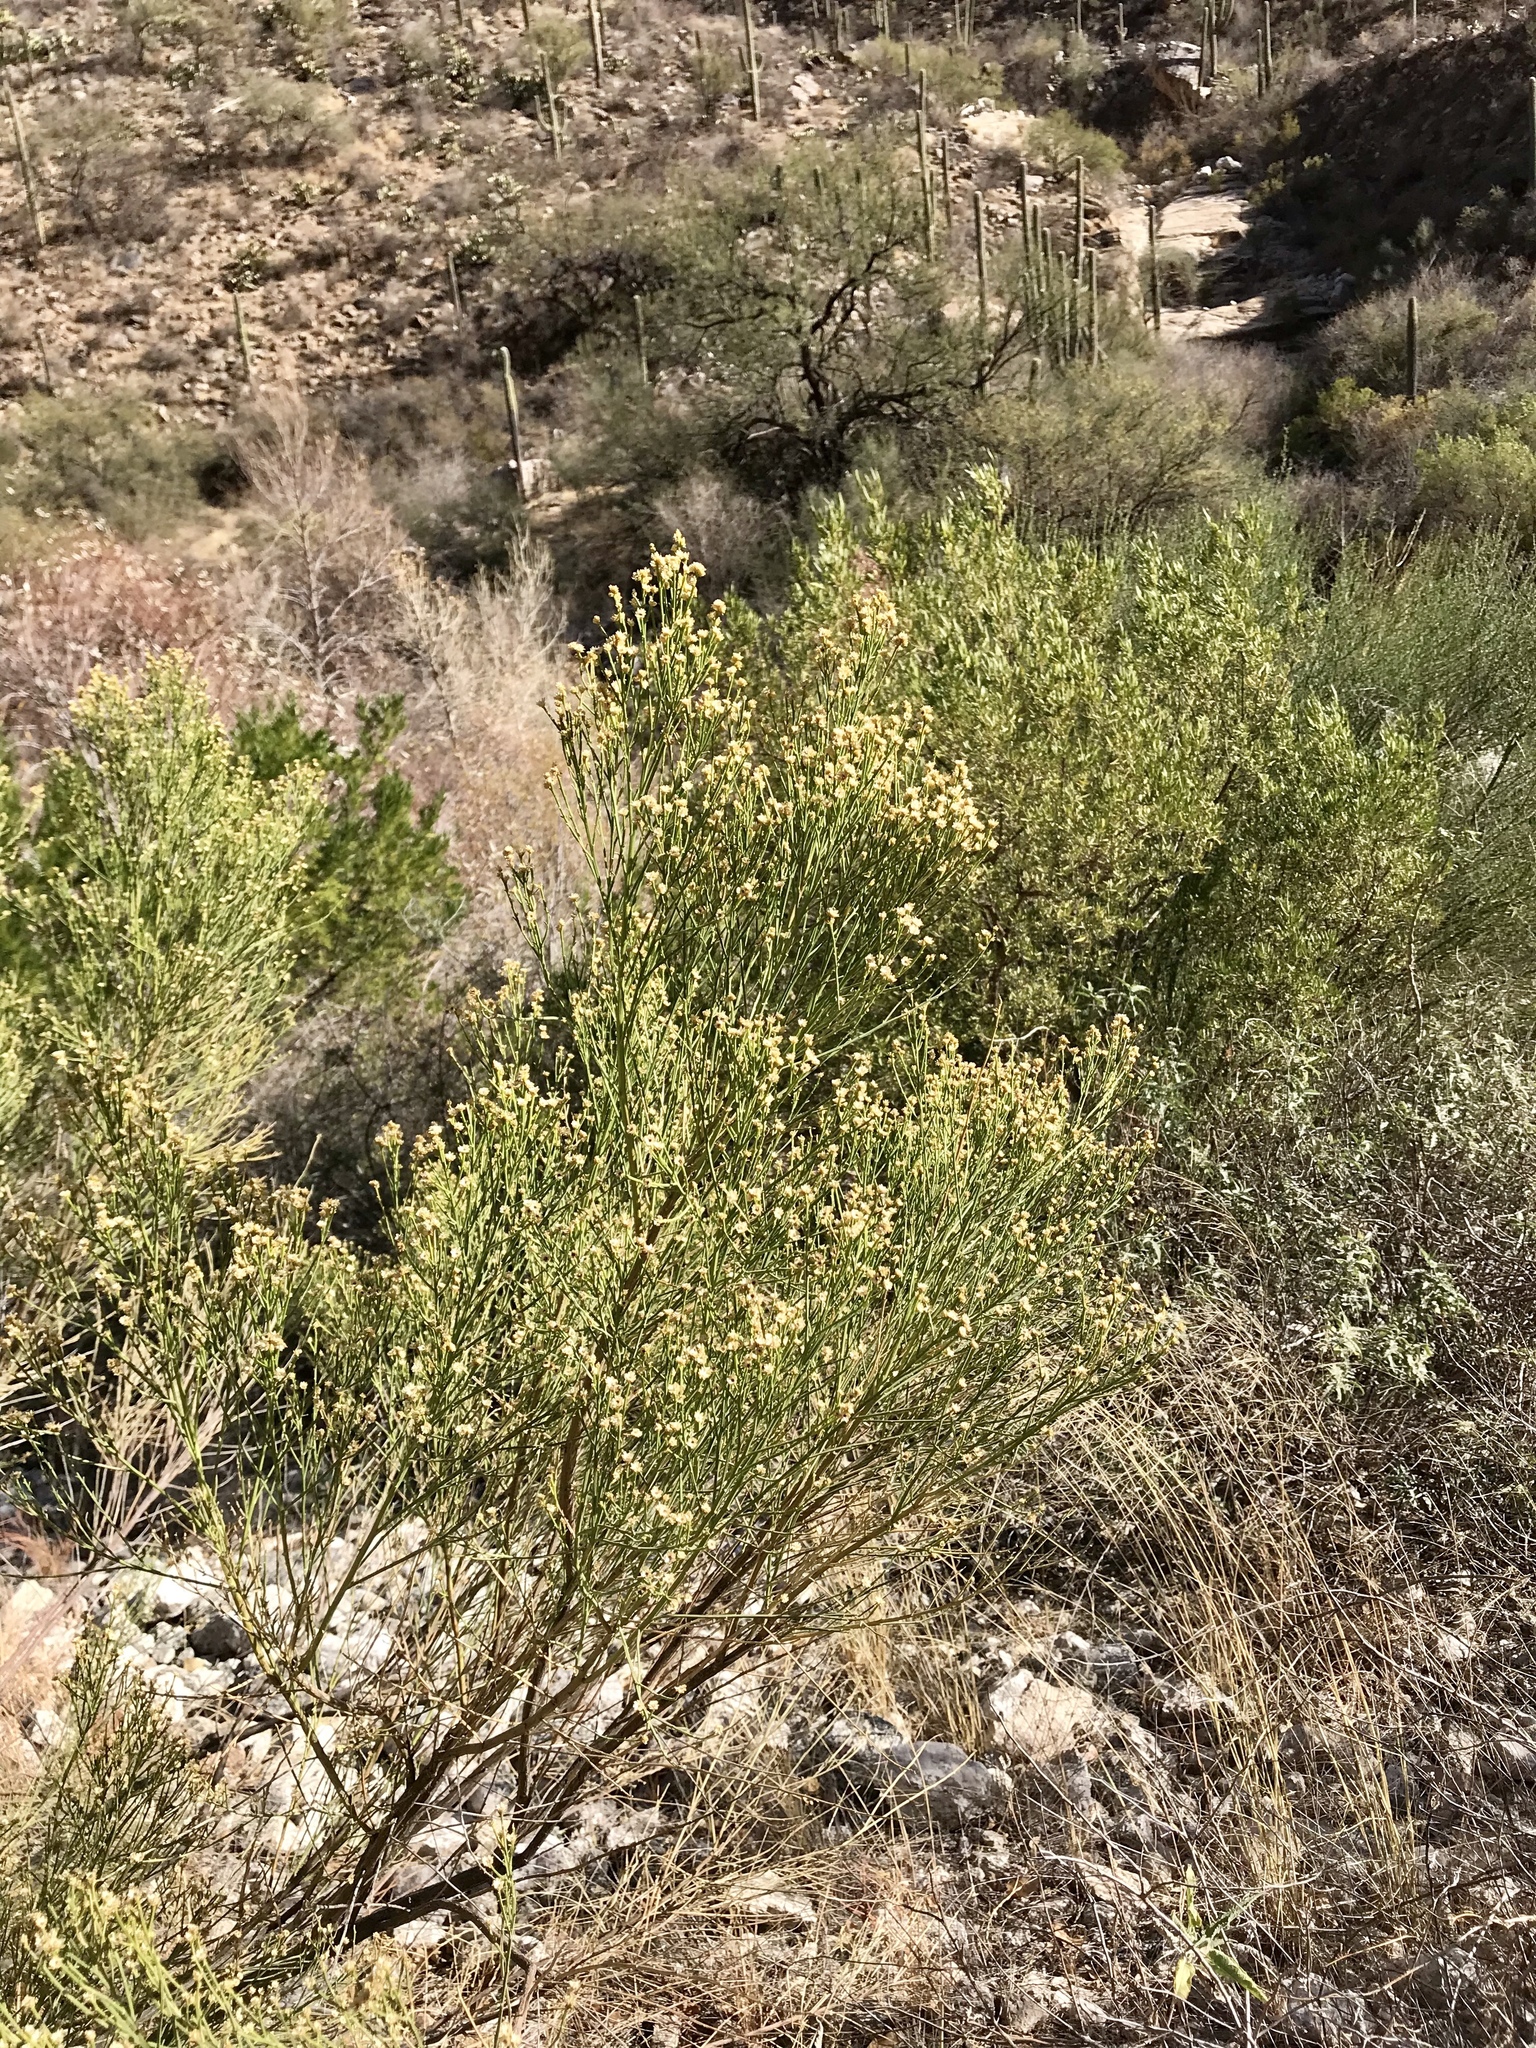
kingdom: Plantae
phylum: Tracheophyta
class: Magnoliopsida
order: Asterales
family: Asteraceae
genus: Baccharis
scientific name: Baccharis sarothroides
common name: Desert-broom
